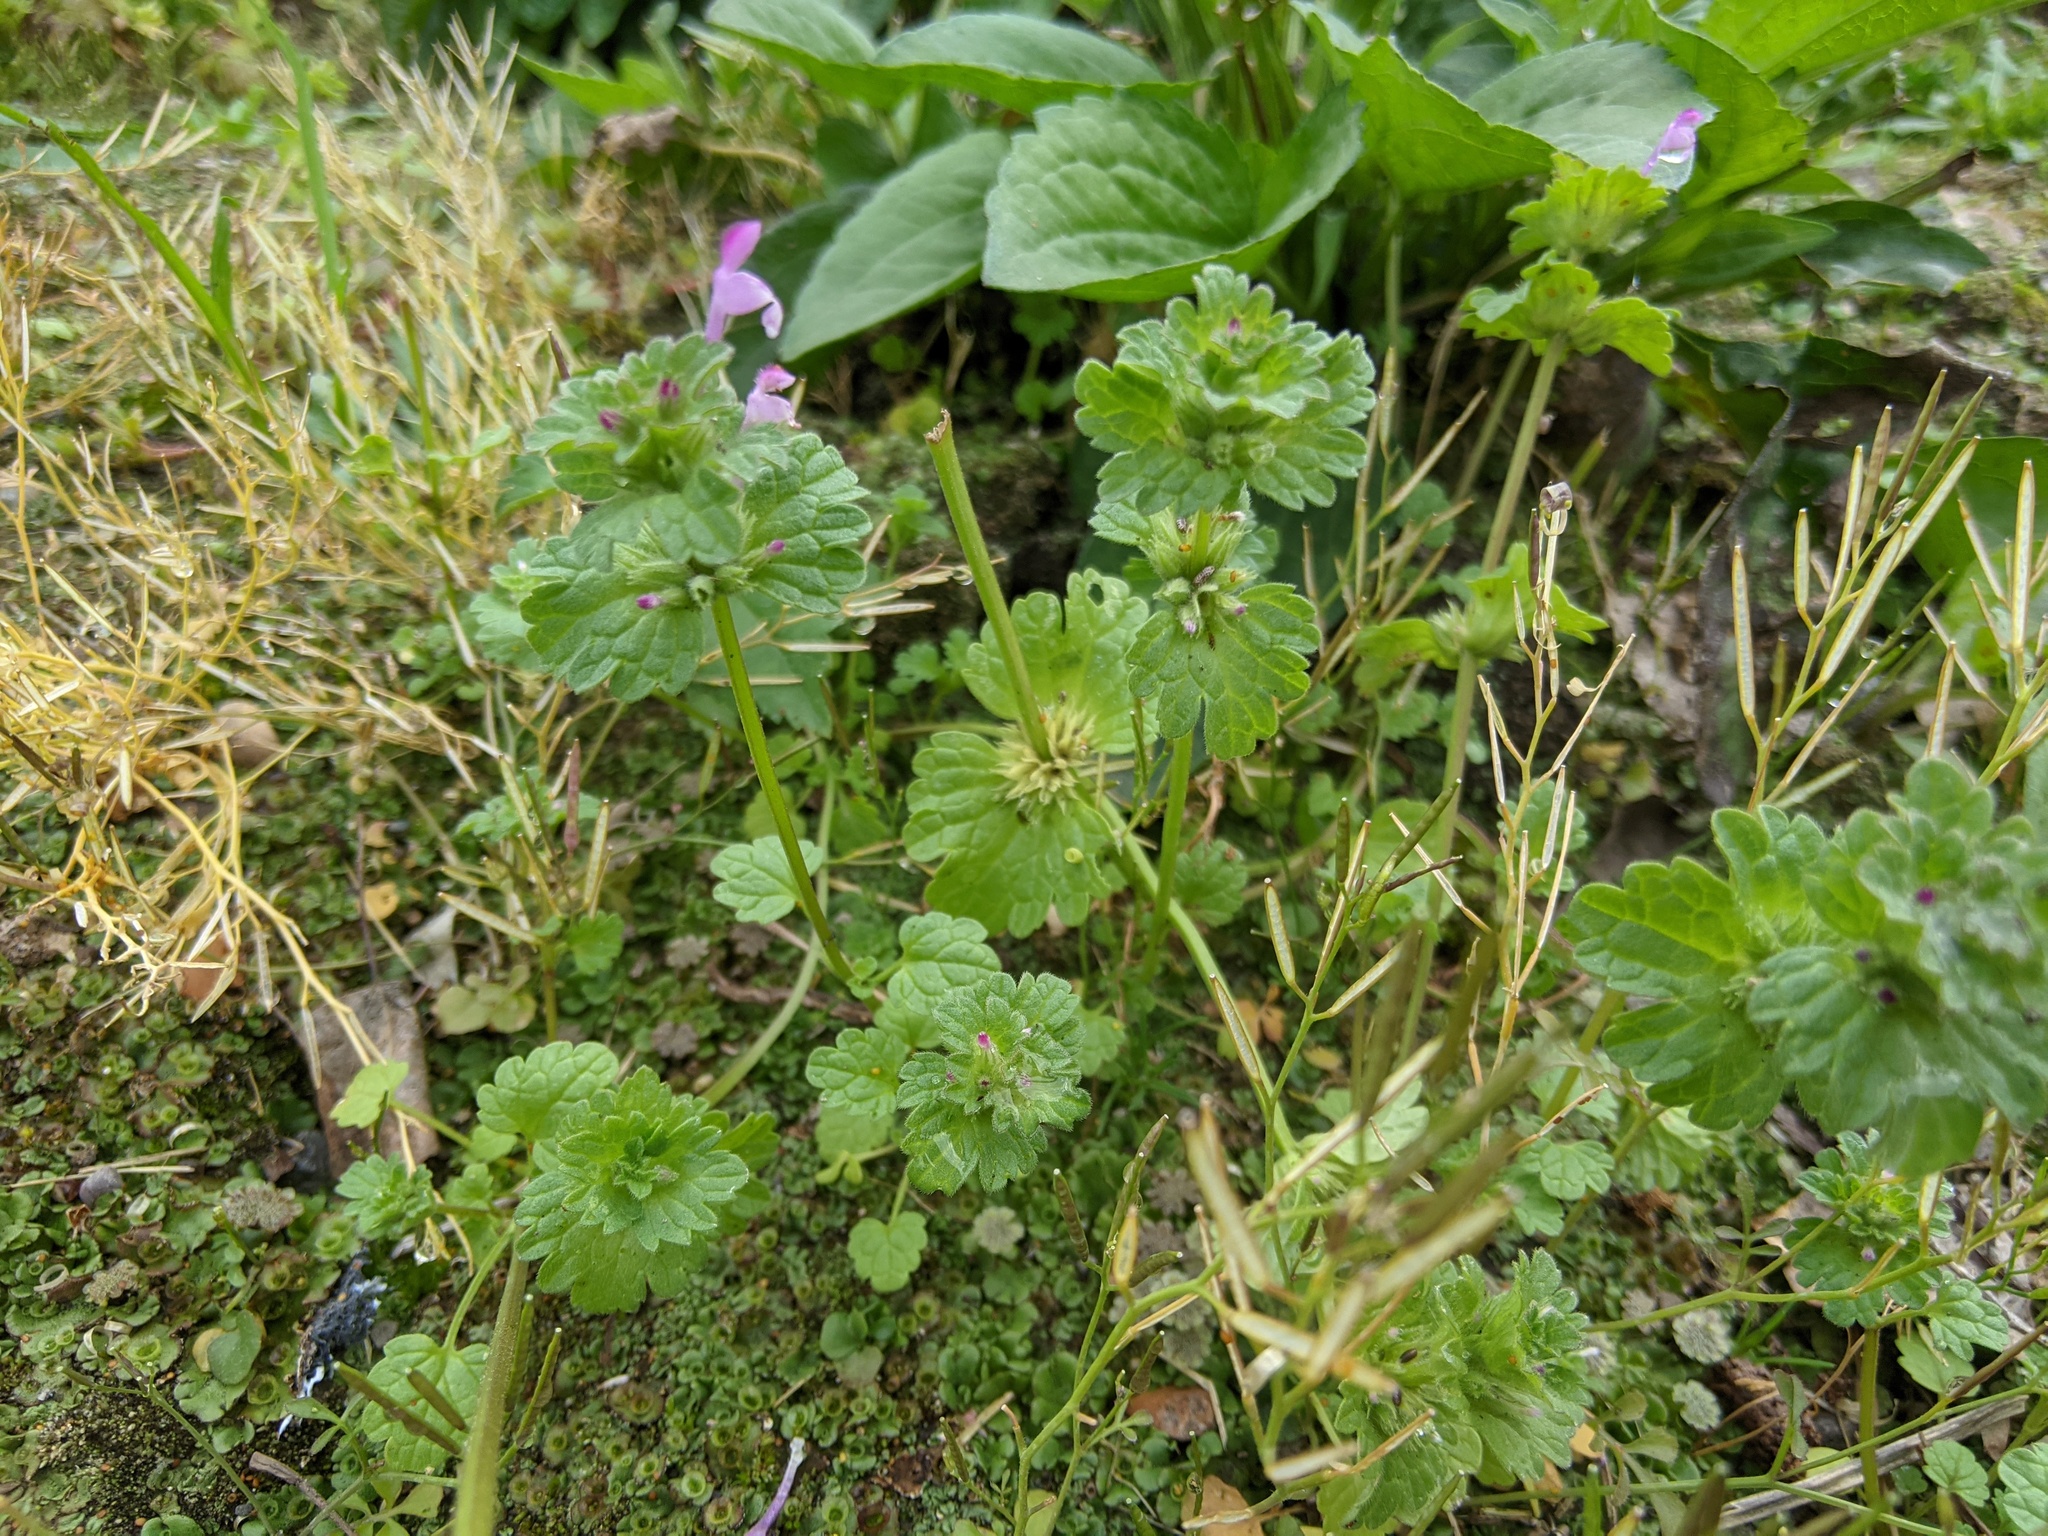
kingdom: Plantae
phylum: Tracheophyta
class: Magnoliopsida
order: Lamiales
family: Lamiaceae
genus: Lamium
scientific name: Lamium amplexicaule
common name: Henbit dead-nettle
